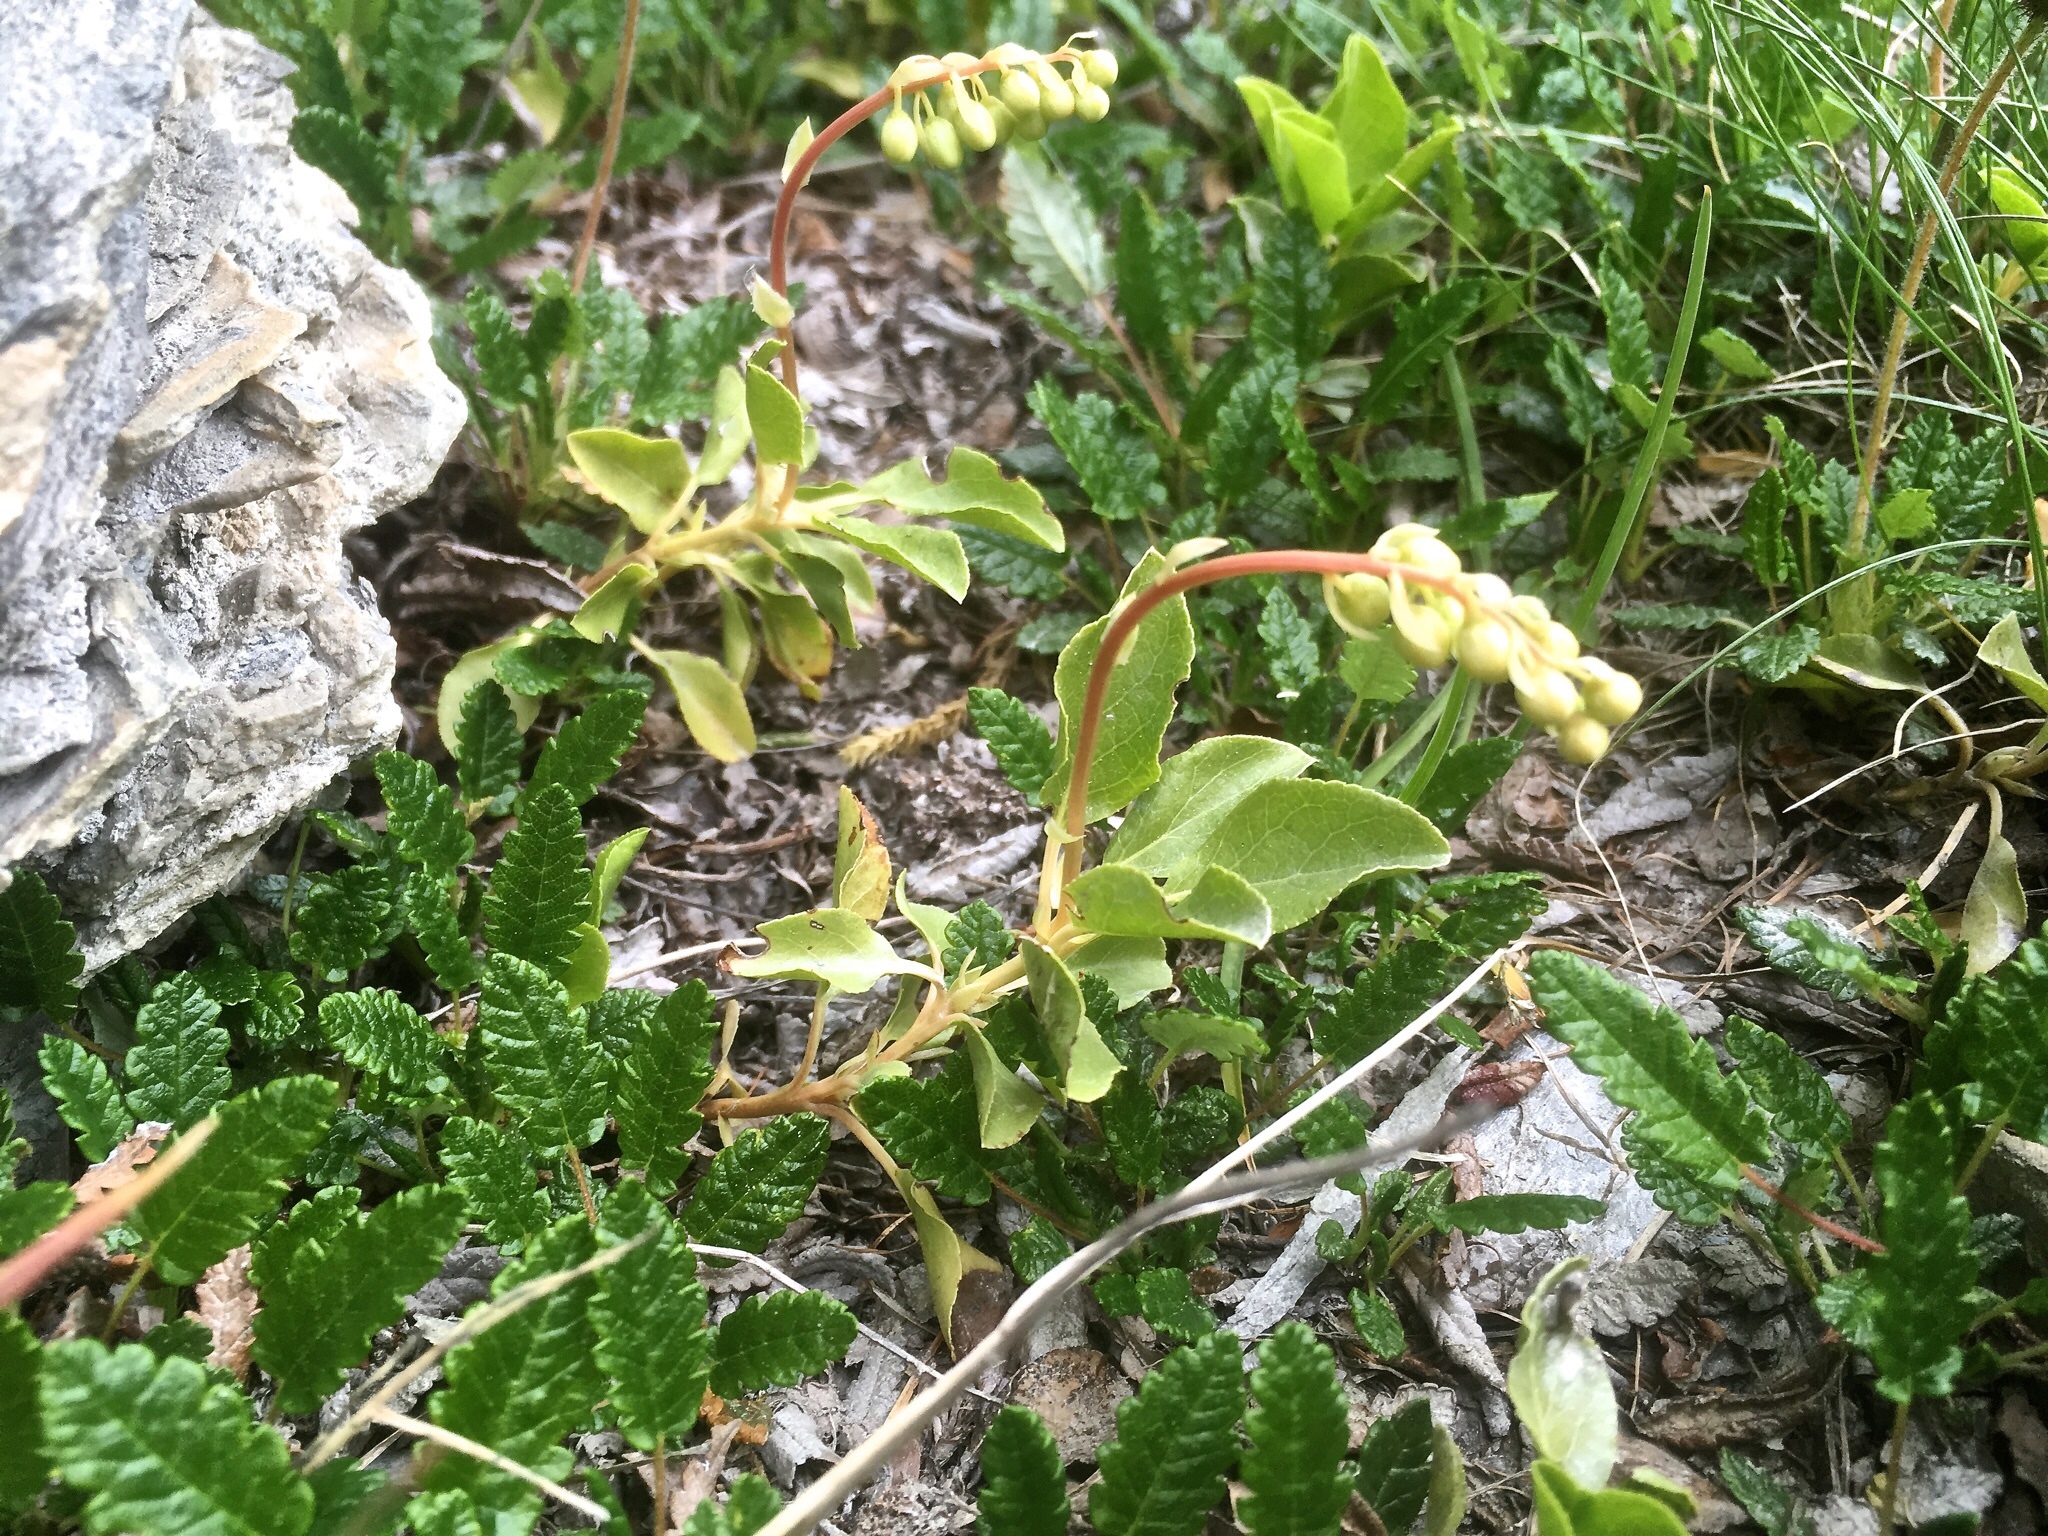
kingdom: Plantae
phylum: Tracheophyta
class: Magnoliopsida
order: Ericales
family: Ericaceae
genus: Orthilia
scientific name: Orthilia secunda
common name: One-sided orthilia
